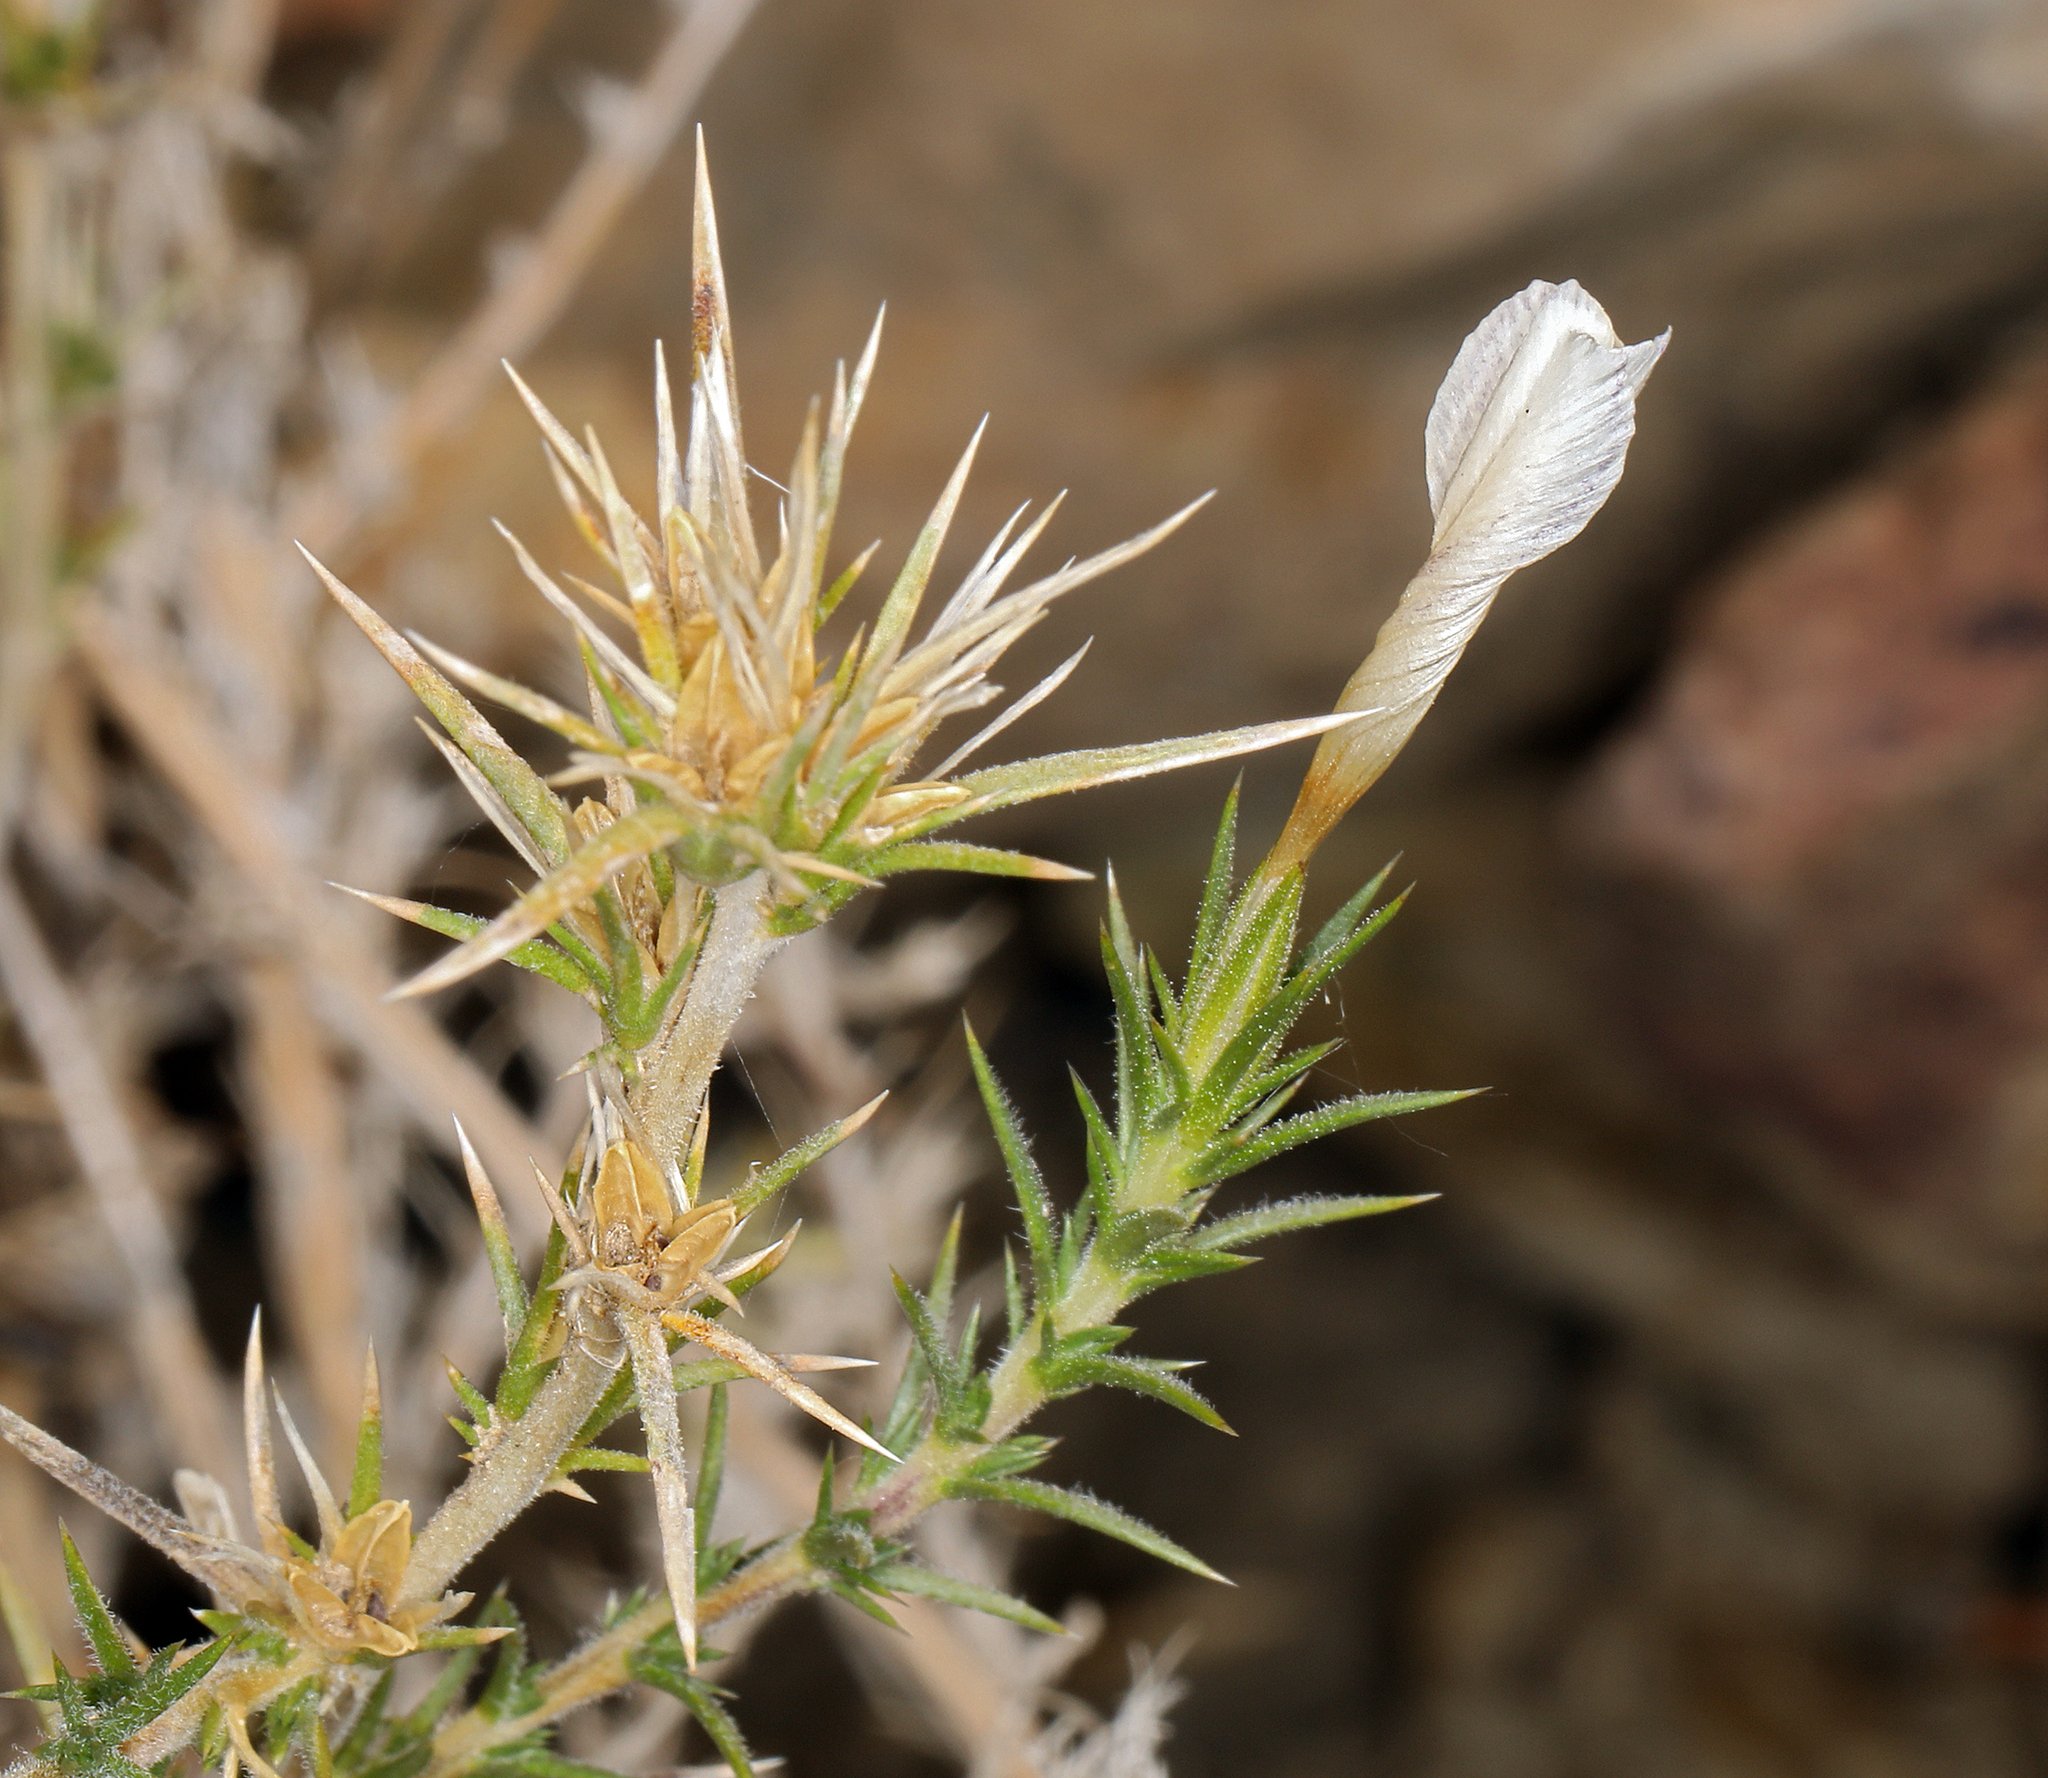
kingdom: Plantae
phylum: Tracheophyta
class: Magnoliopsida
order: Ericales
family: Polemoniaceae
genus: Linanthus
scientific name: Linanthus pungens
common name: Granite prickly phlox
